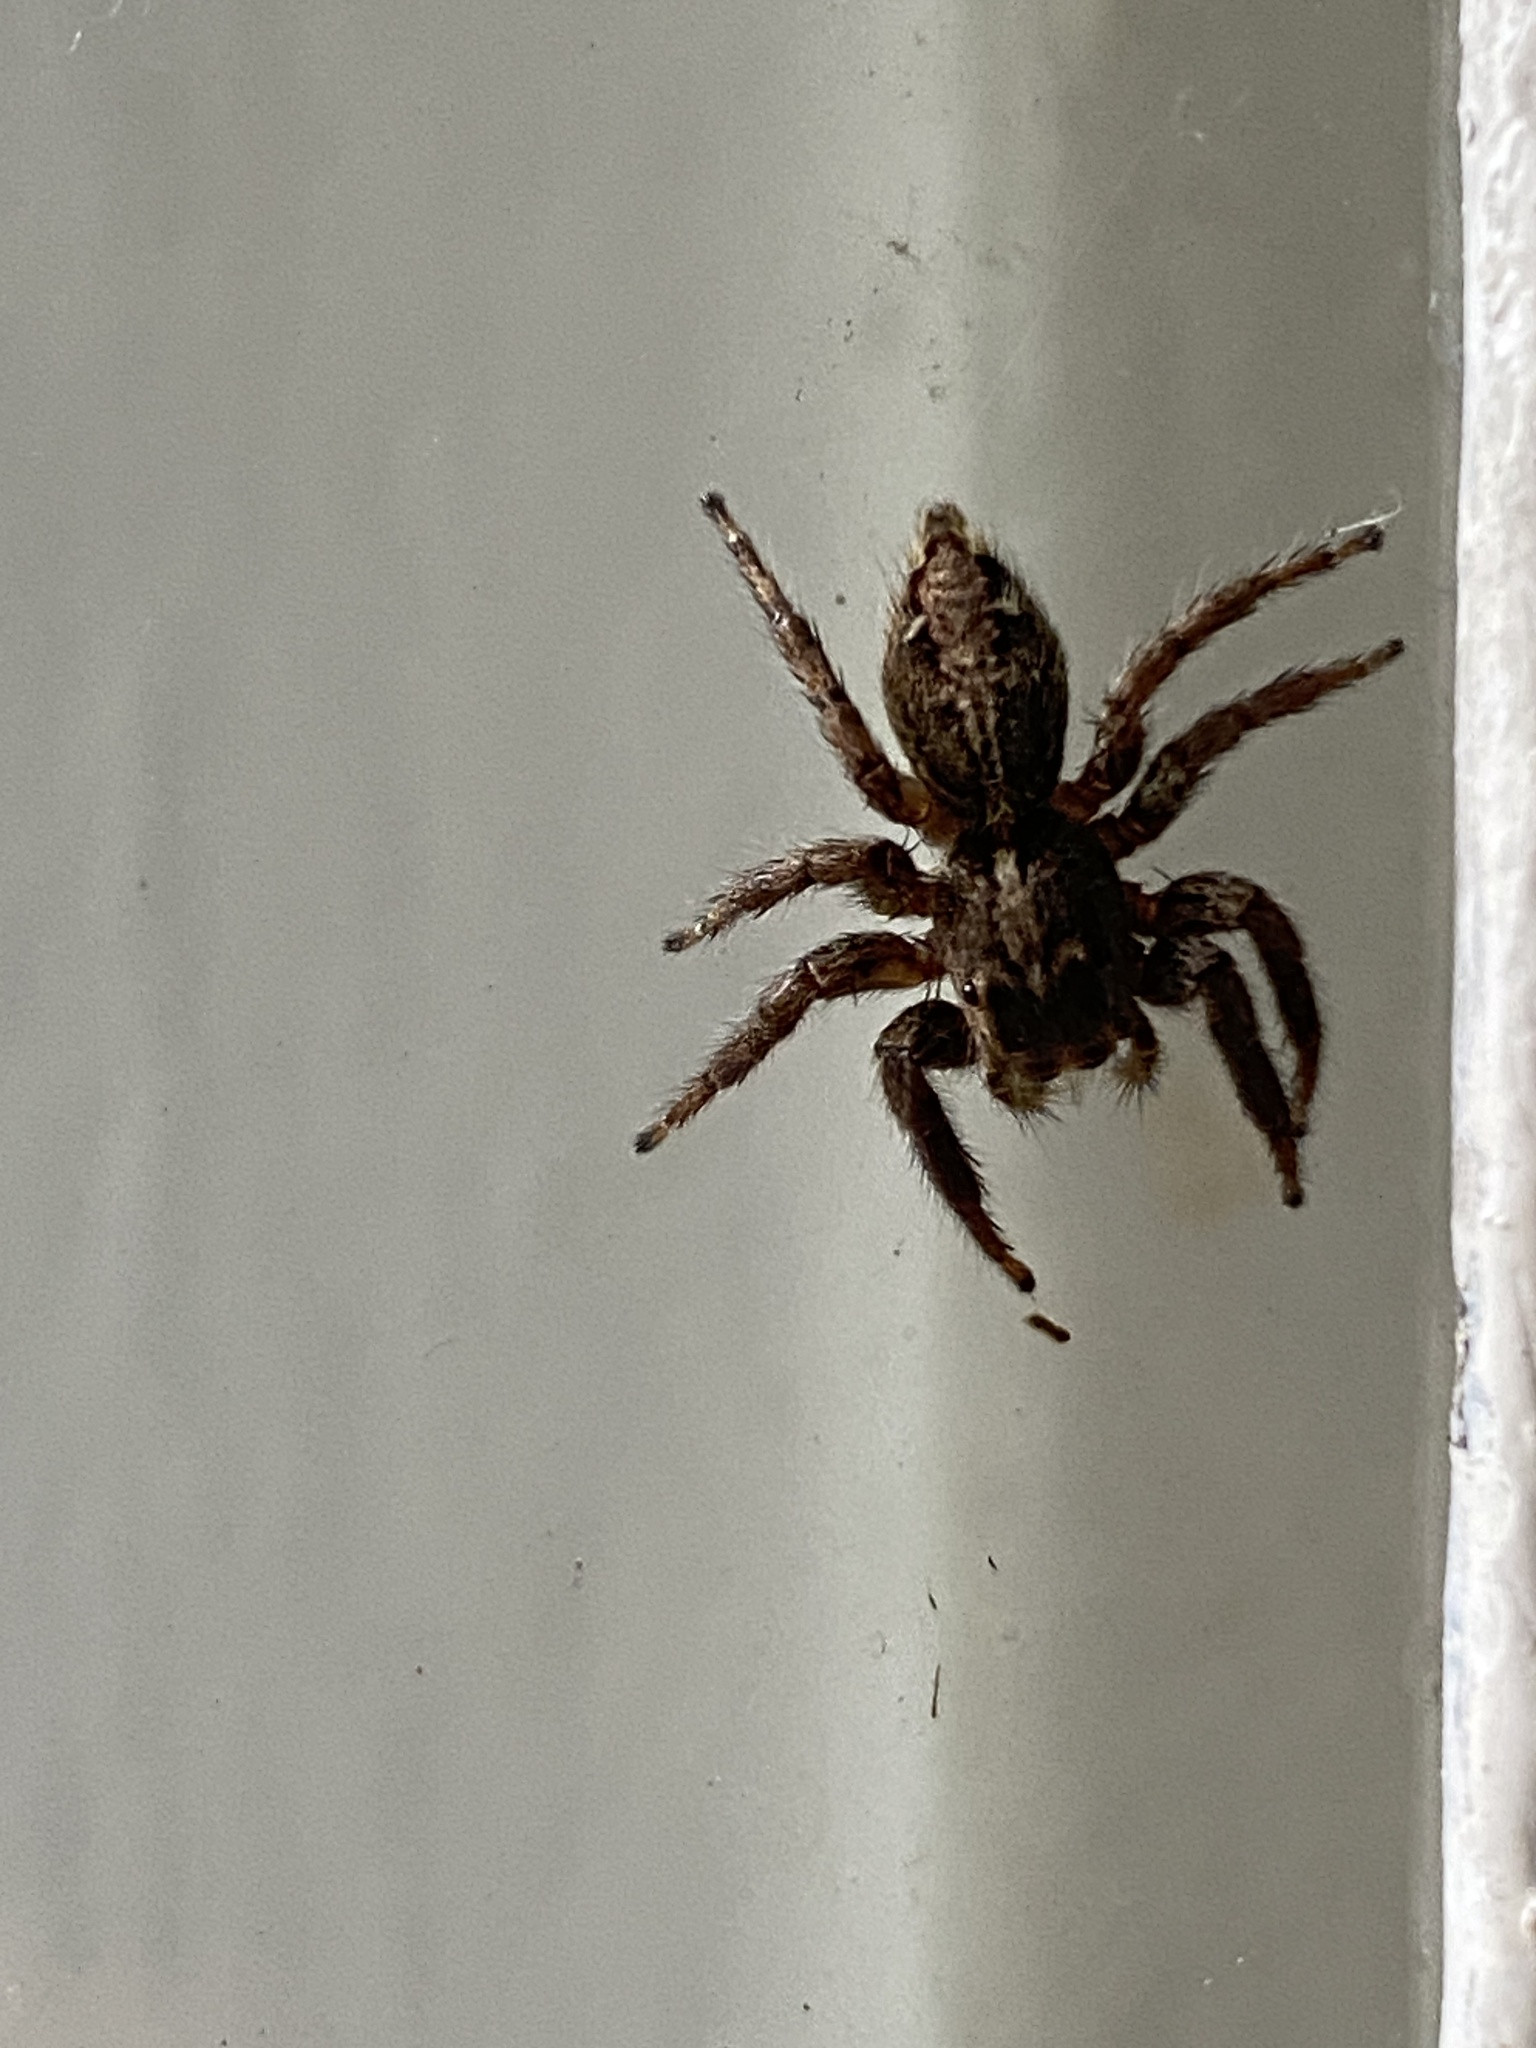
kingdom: Animalia
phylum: Arthropoda
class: Arachnida
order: Araneae
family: Salticidae
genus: Plexippus
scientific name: Plexippus paykulli
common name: Pantropical jumper
